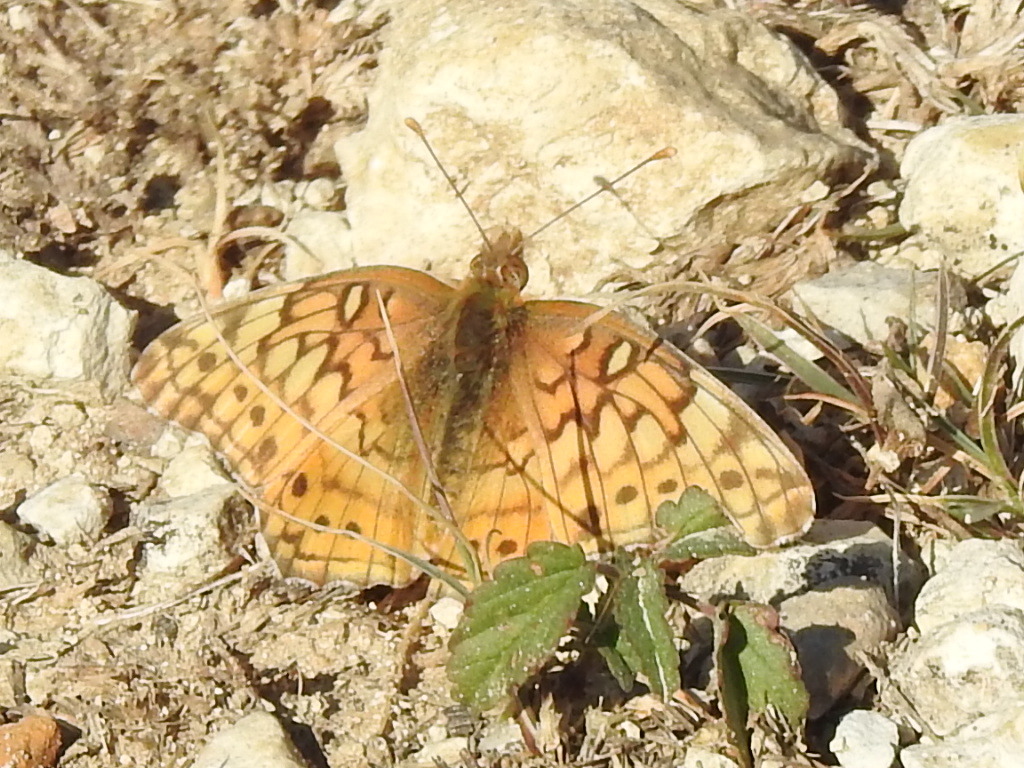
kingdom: Animalia
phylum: Arthropoda
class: Insecta
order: Lepidoptera
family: Nymphalidae
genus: Euptoieta
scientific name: Euptoieta claudia
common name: Variegated fritillary
